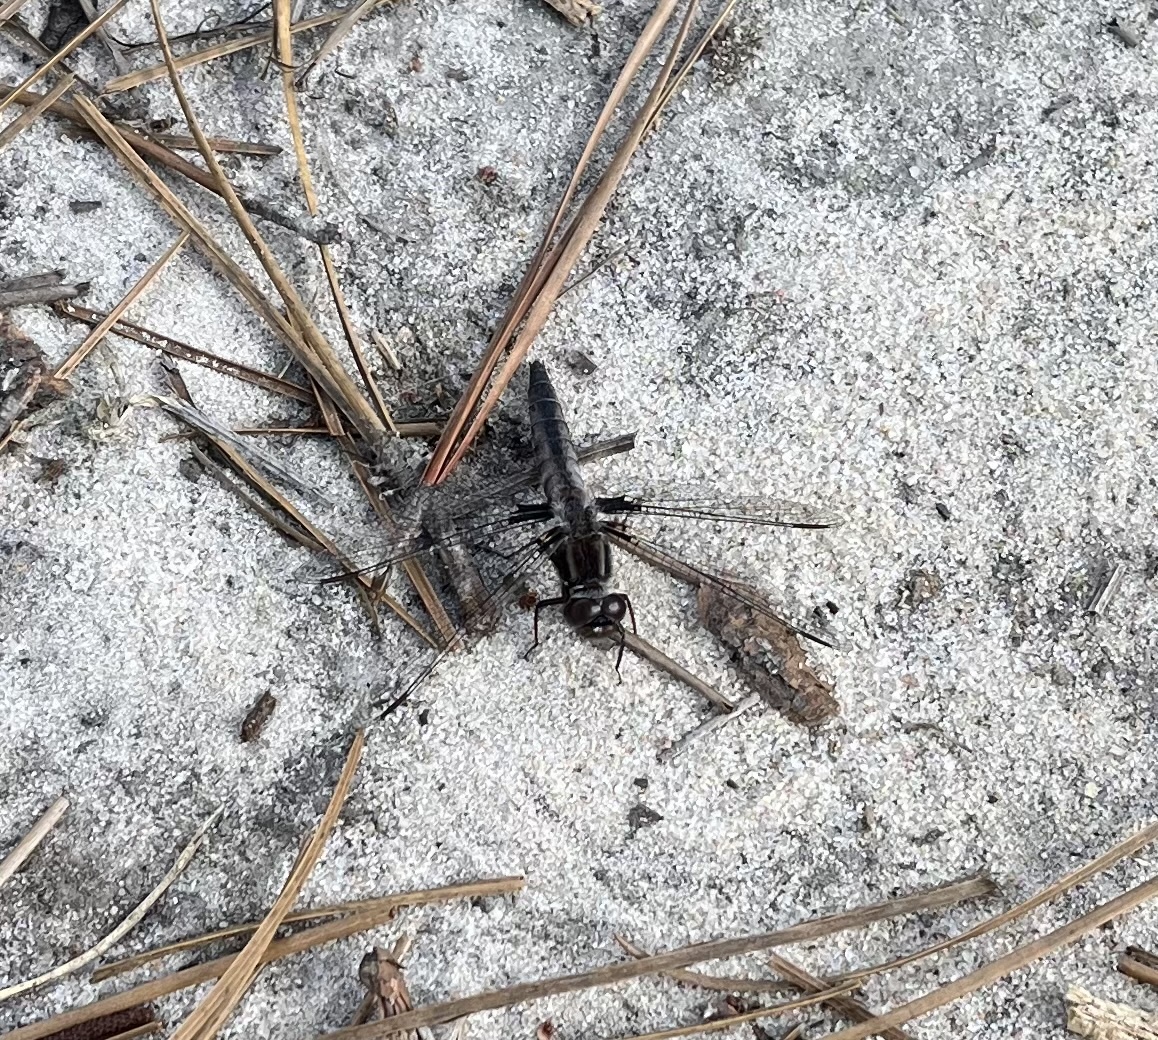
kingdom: Animalia
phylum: Arthropoda
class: Insecta
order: Odonata
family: Libellulidae
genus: Ladona
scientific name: Ladona deplanata
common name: Blue corporal
